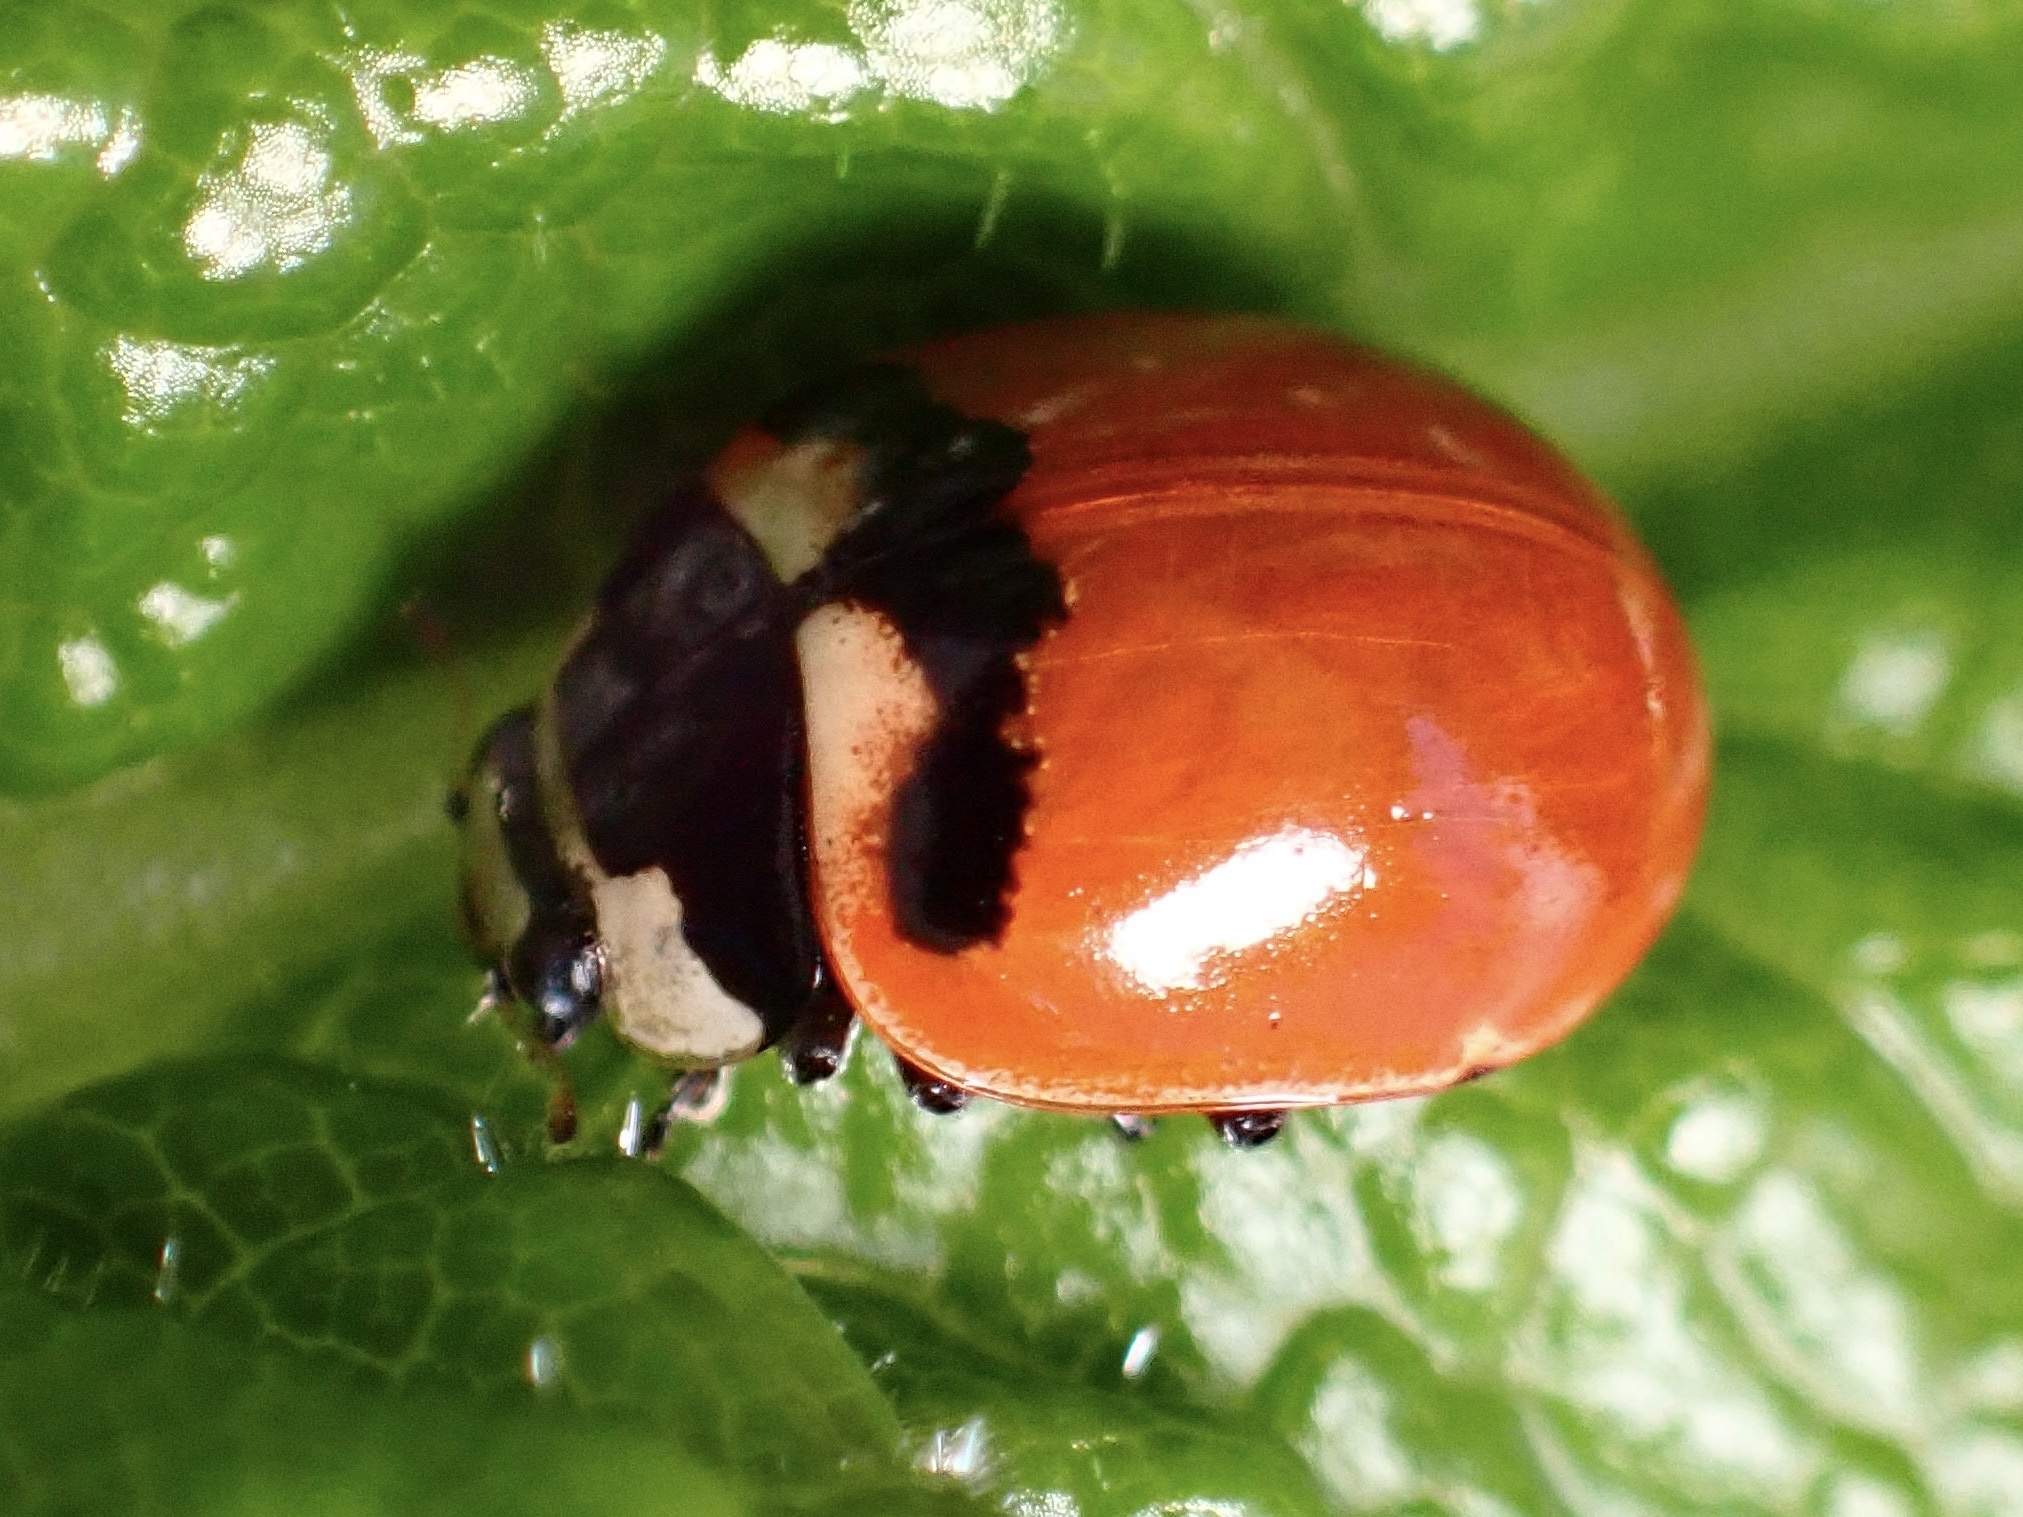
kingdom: Animalia
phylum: Arthropoda
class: Insecta
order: Coleoptera
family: Coccinellidae
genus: Coccinella
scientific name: Coccinella trifasciata
